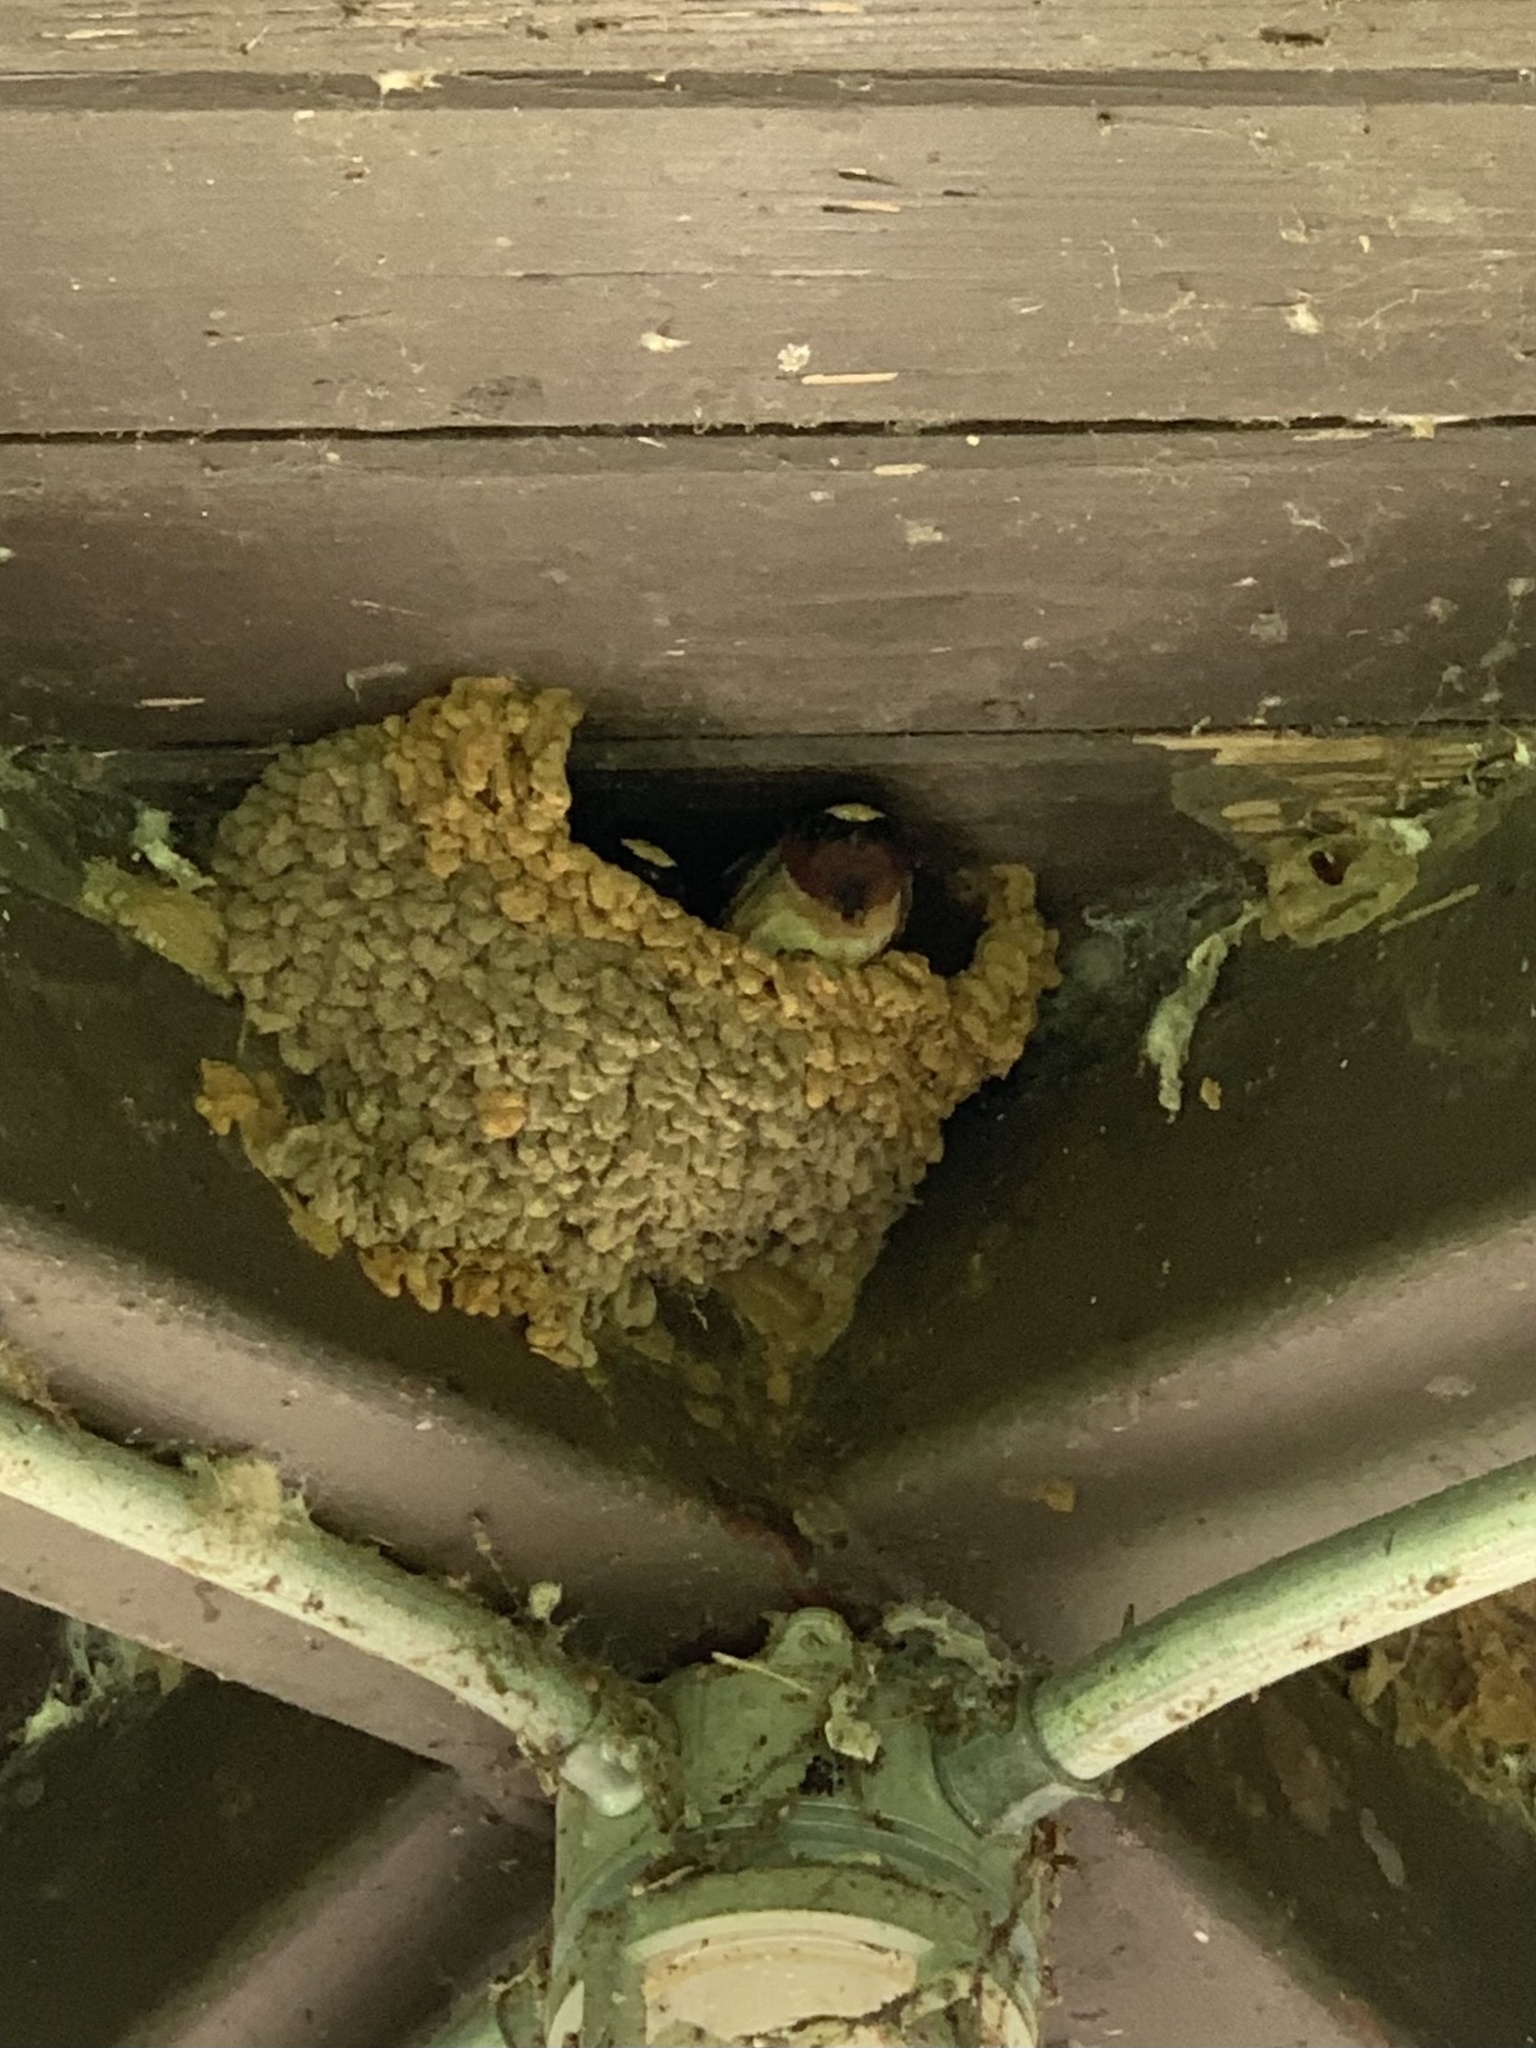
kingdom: Animalia
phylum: Chordata
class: Aves
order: Passeriformes
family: Hirundinidae
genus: Petrochelidon
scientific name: Petrochelidon pyrrhonota
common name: American cliff swallow
